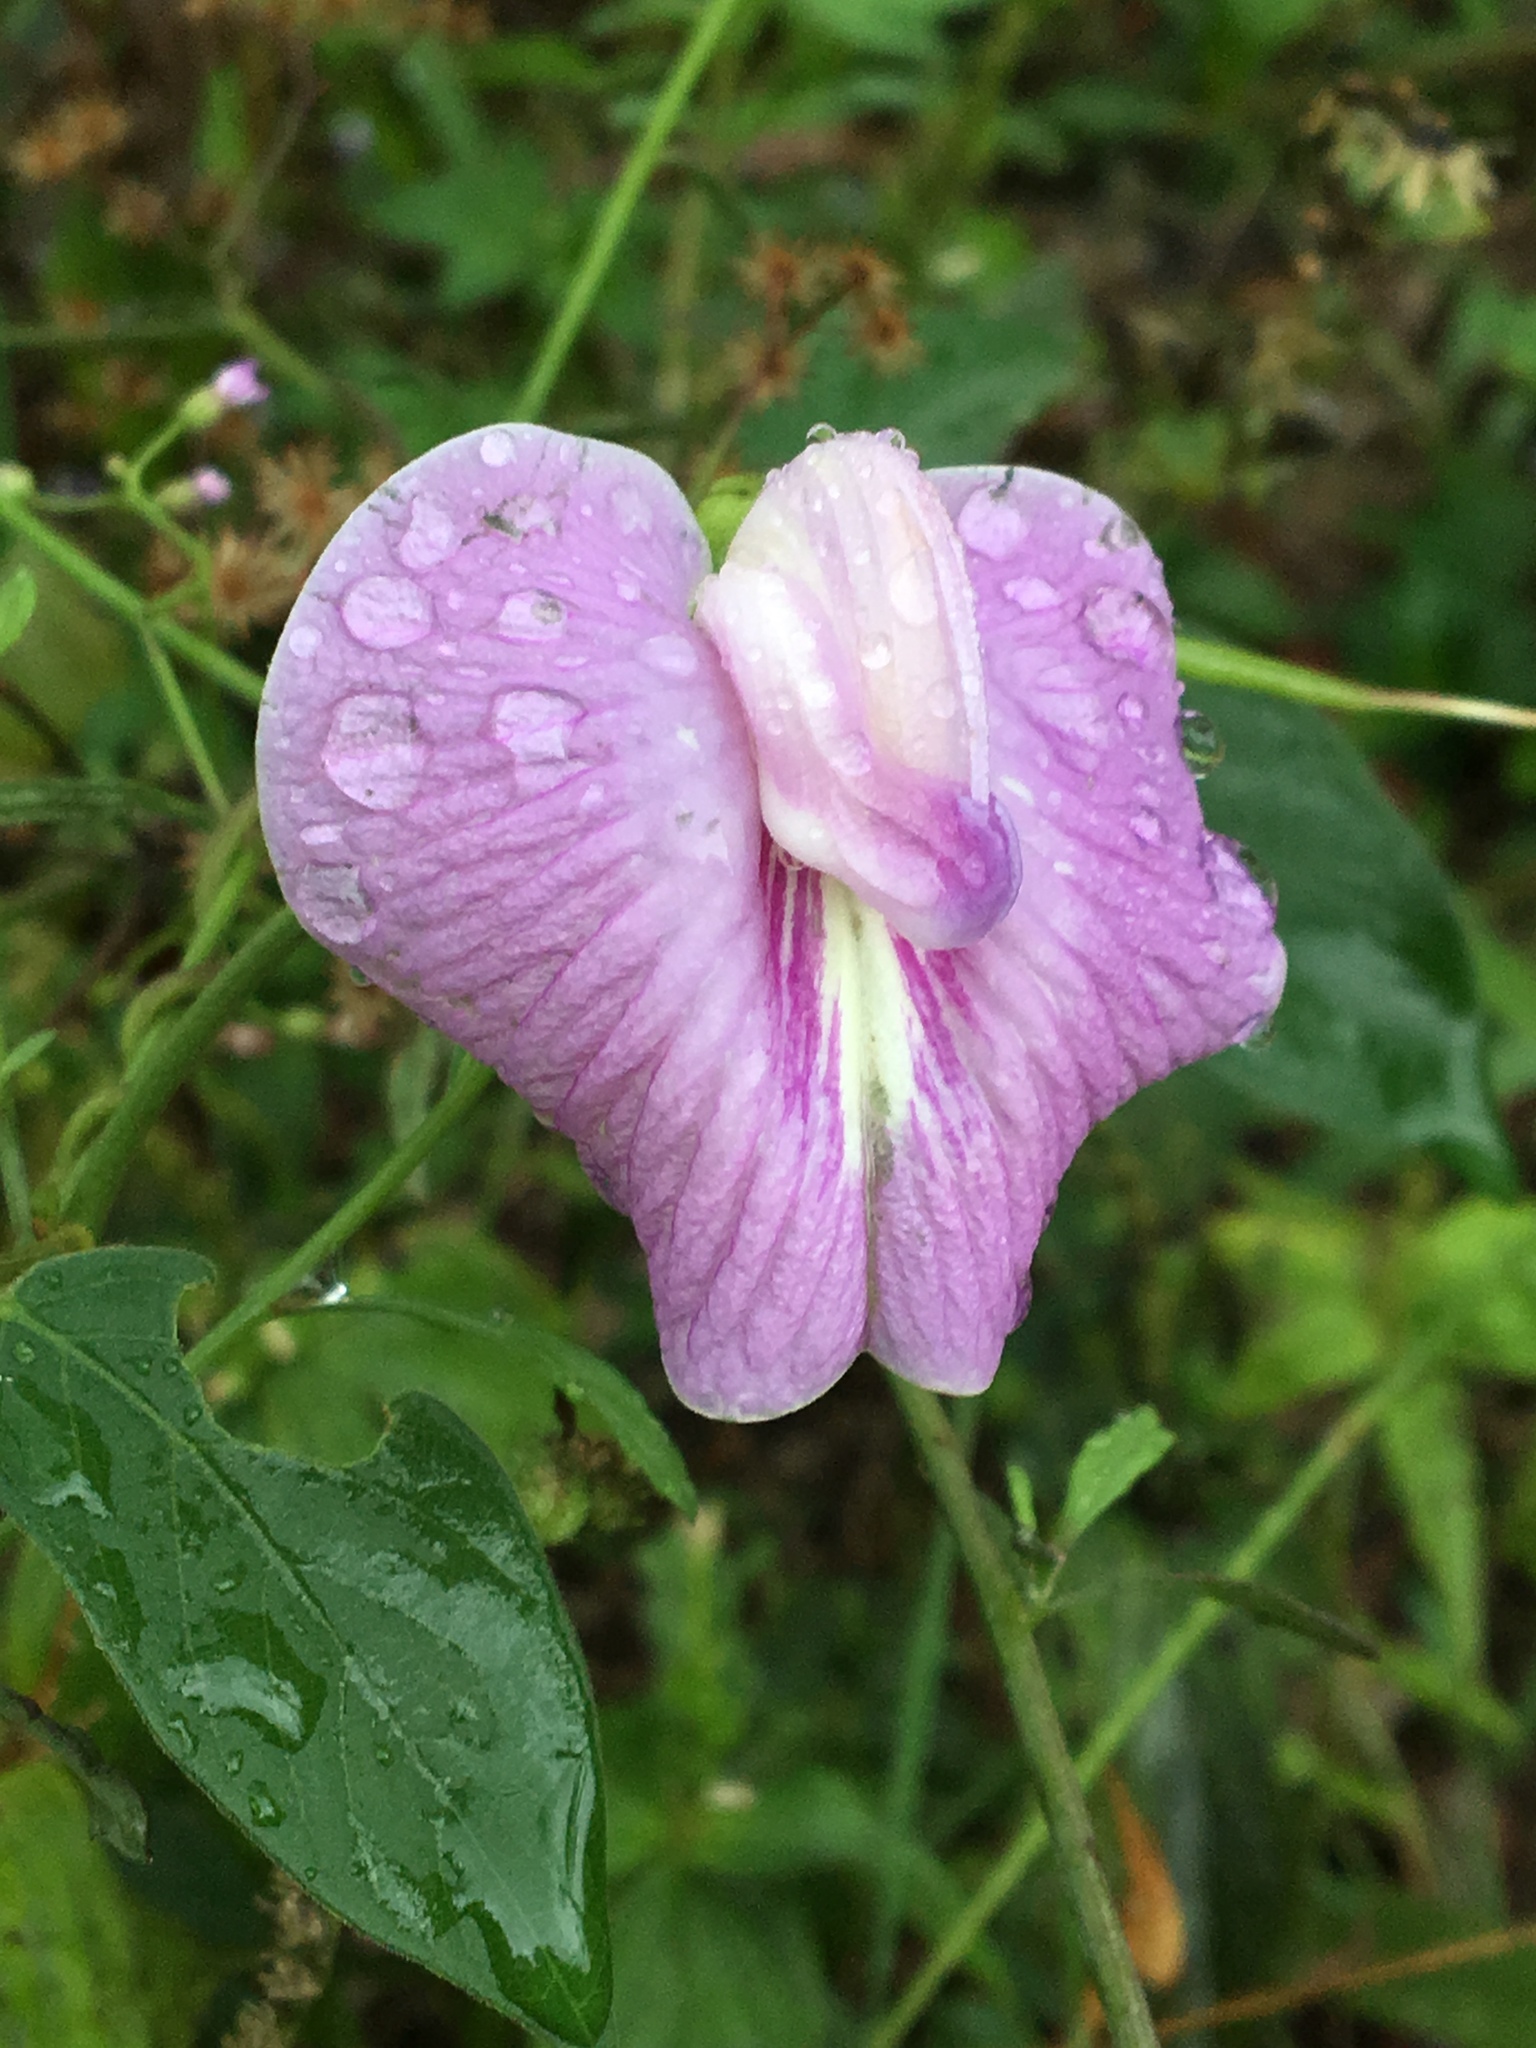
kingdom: Plantae
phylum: Tracheophyta
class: Magnoliopsida
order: Fabales
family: Fabaceae
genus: Centrosema
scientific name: Centrosema molle
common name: Soft butterfly pea
